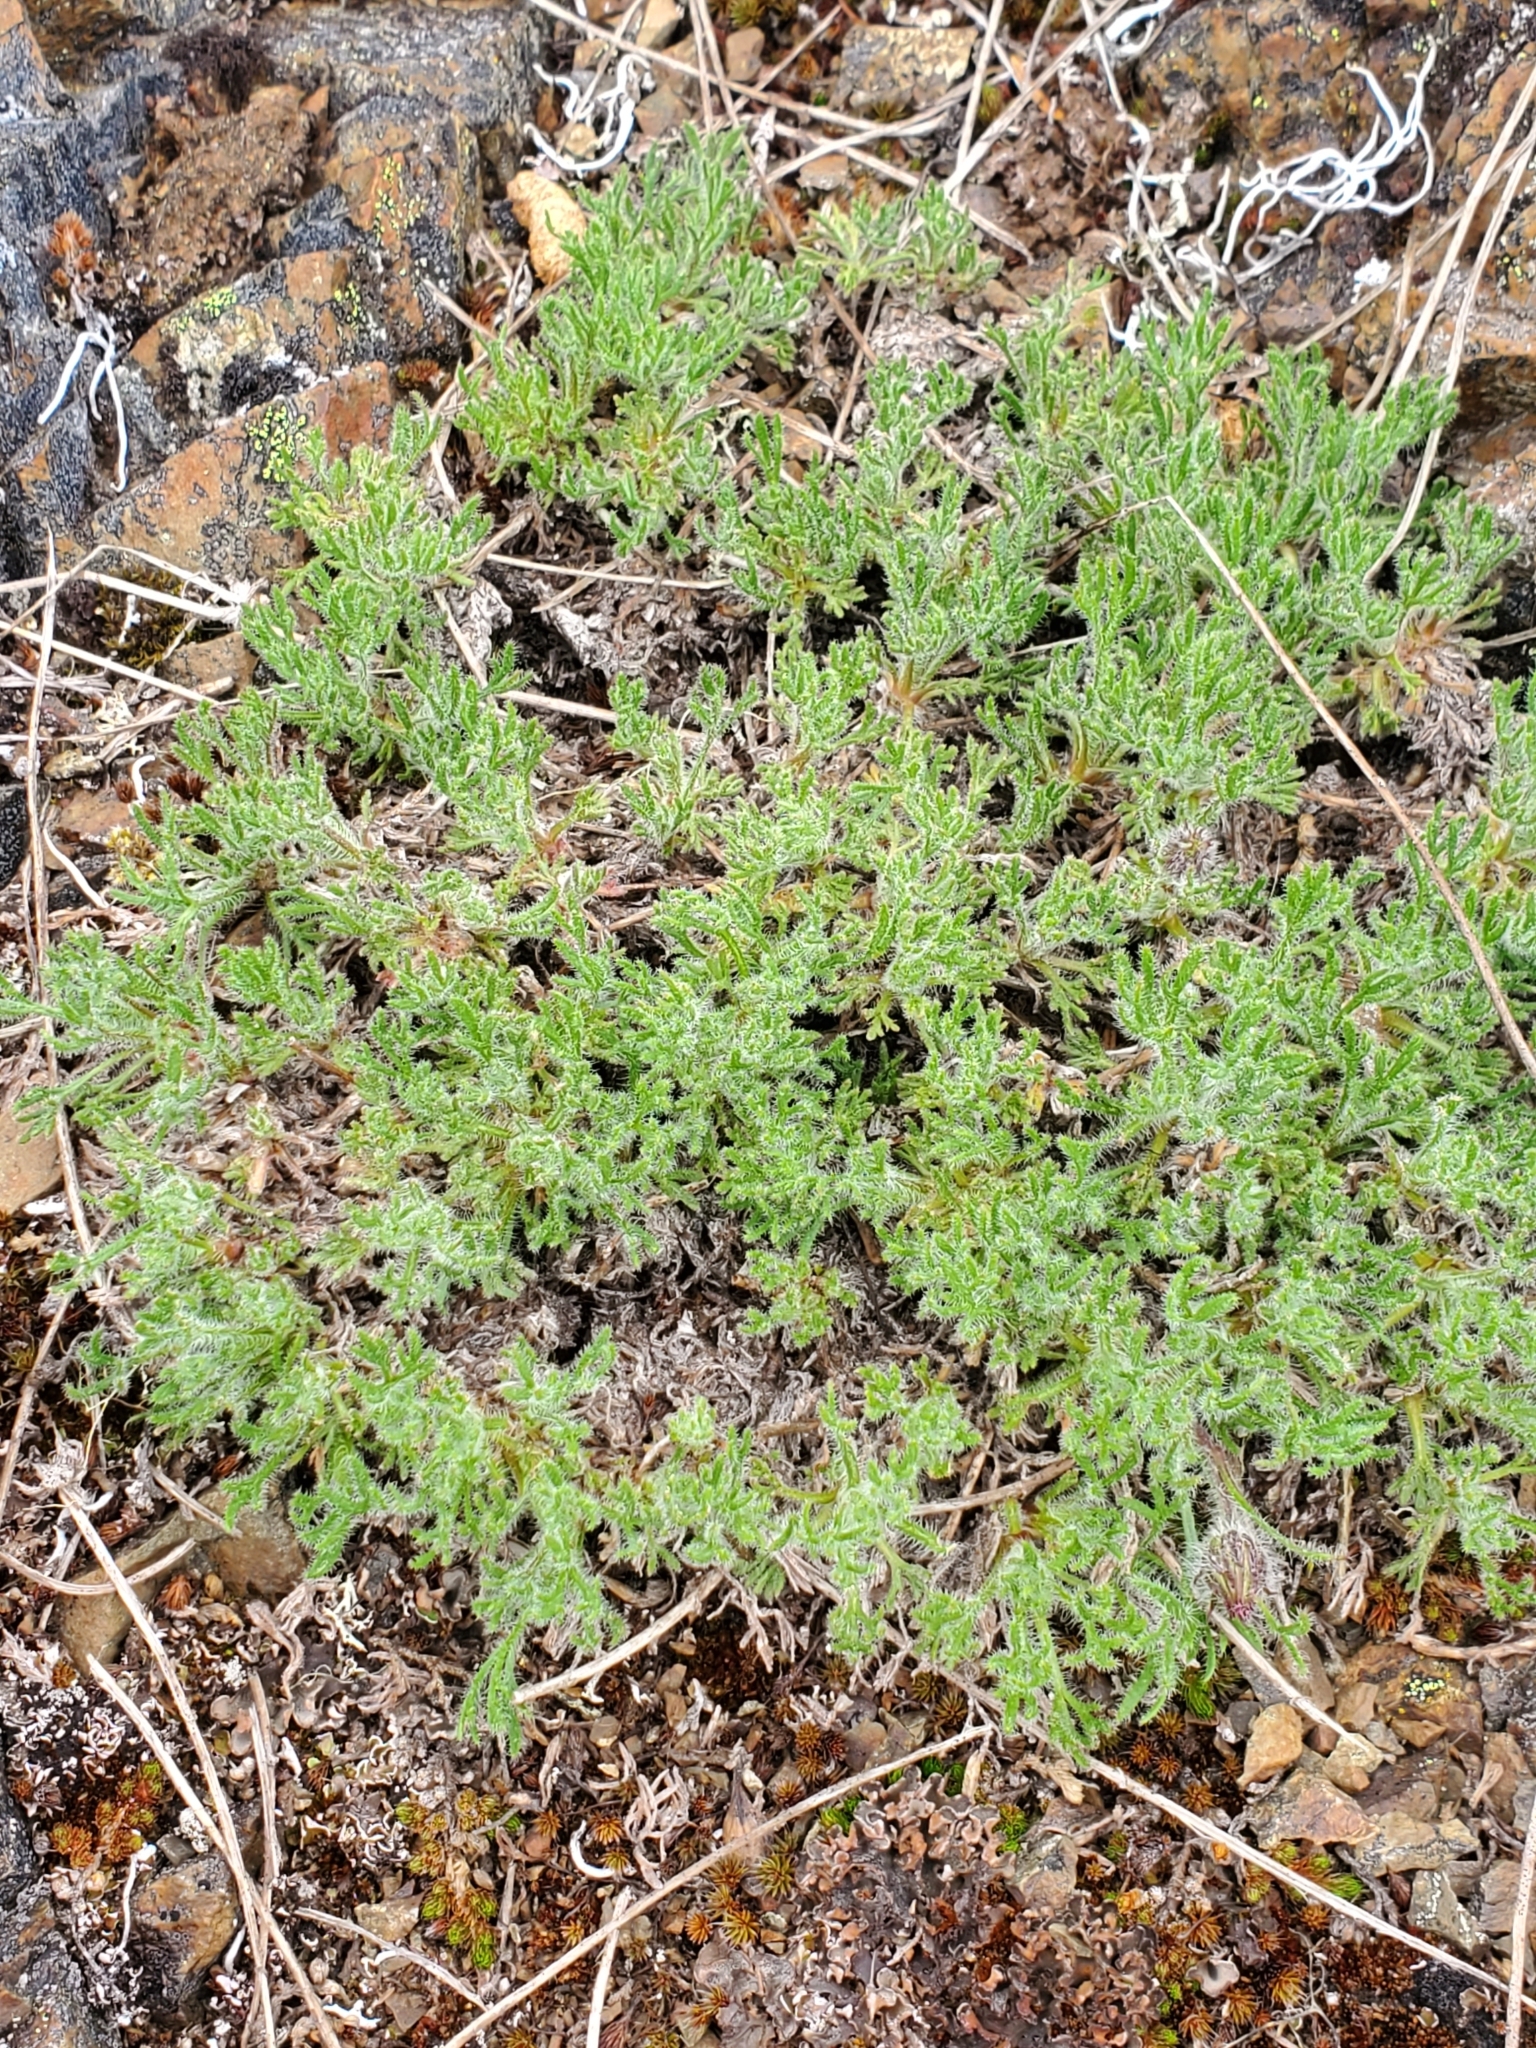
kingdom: Plantae
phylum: Tracheophyta
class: Magnoliopsida
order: Asterales
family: Asteraceae
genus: Erigeron
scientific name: Erigeron compositus
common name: Dwarf mountain fleabane
